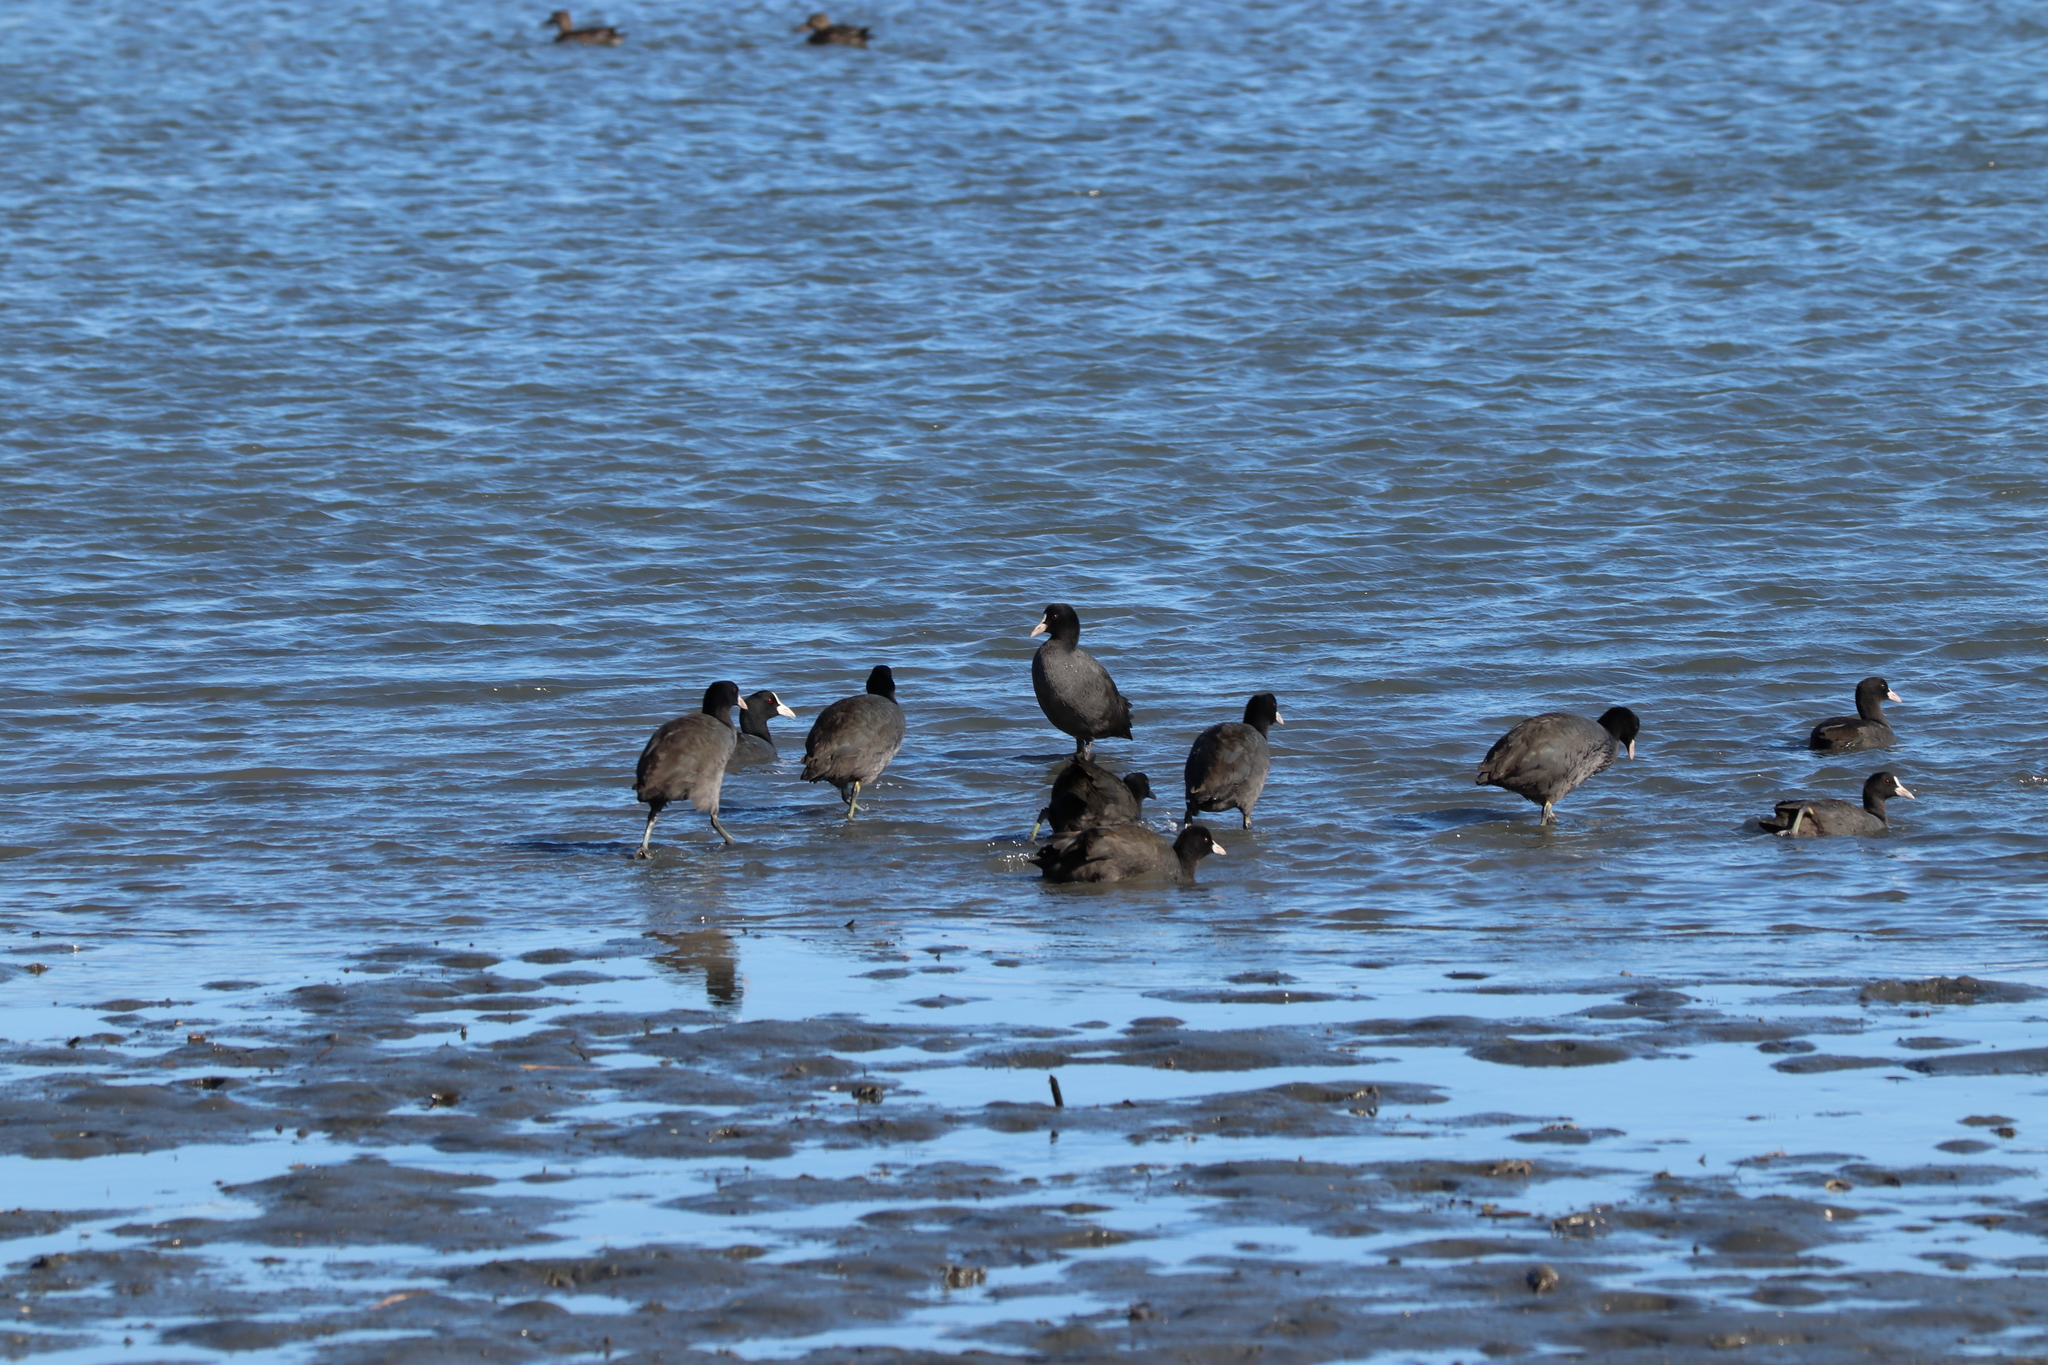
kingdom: Animalia
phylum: Chordata
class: Aves
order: Gruiformes
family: Rallidae
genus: Fulica
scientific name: Fulica atra
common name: Eurasian coot
